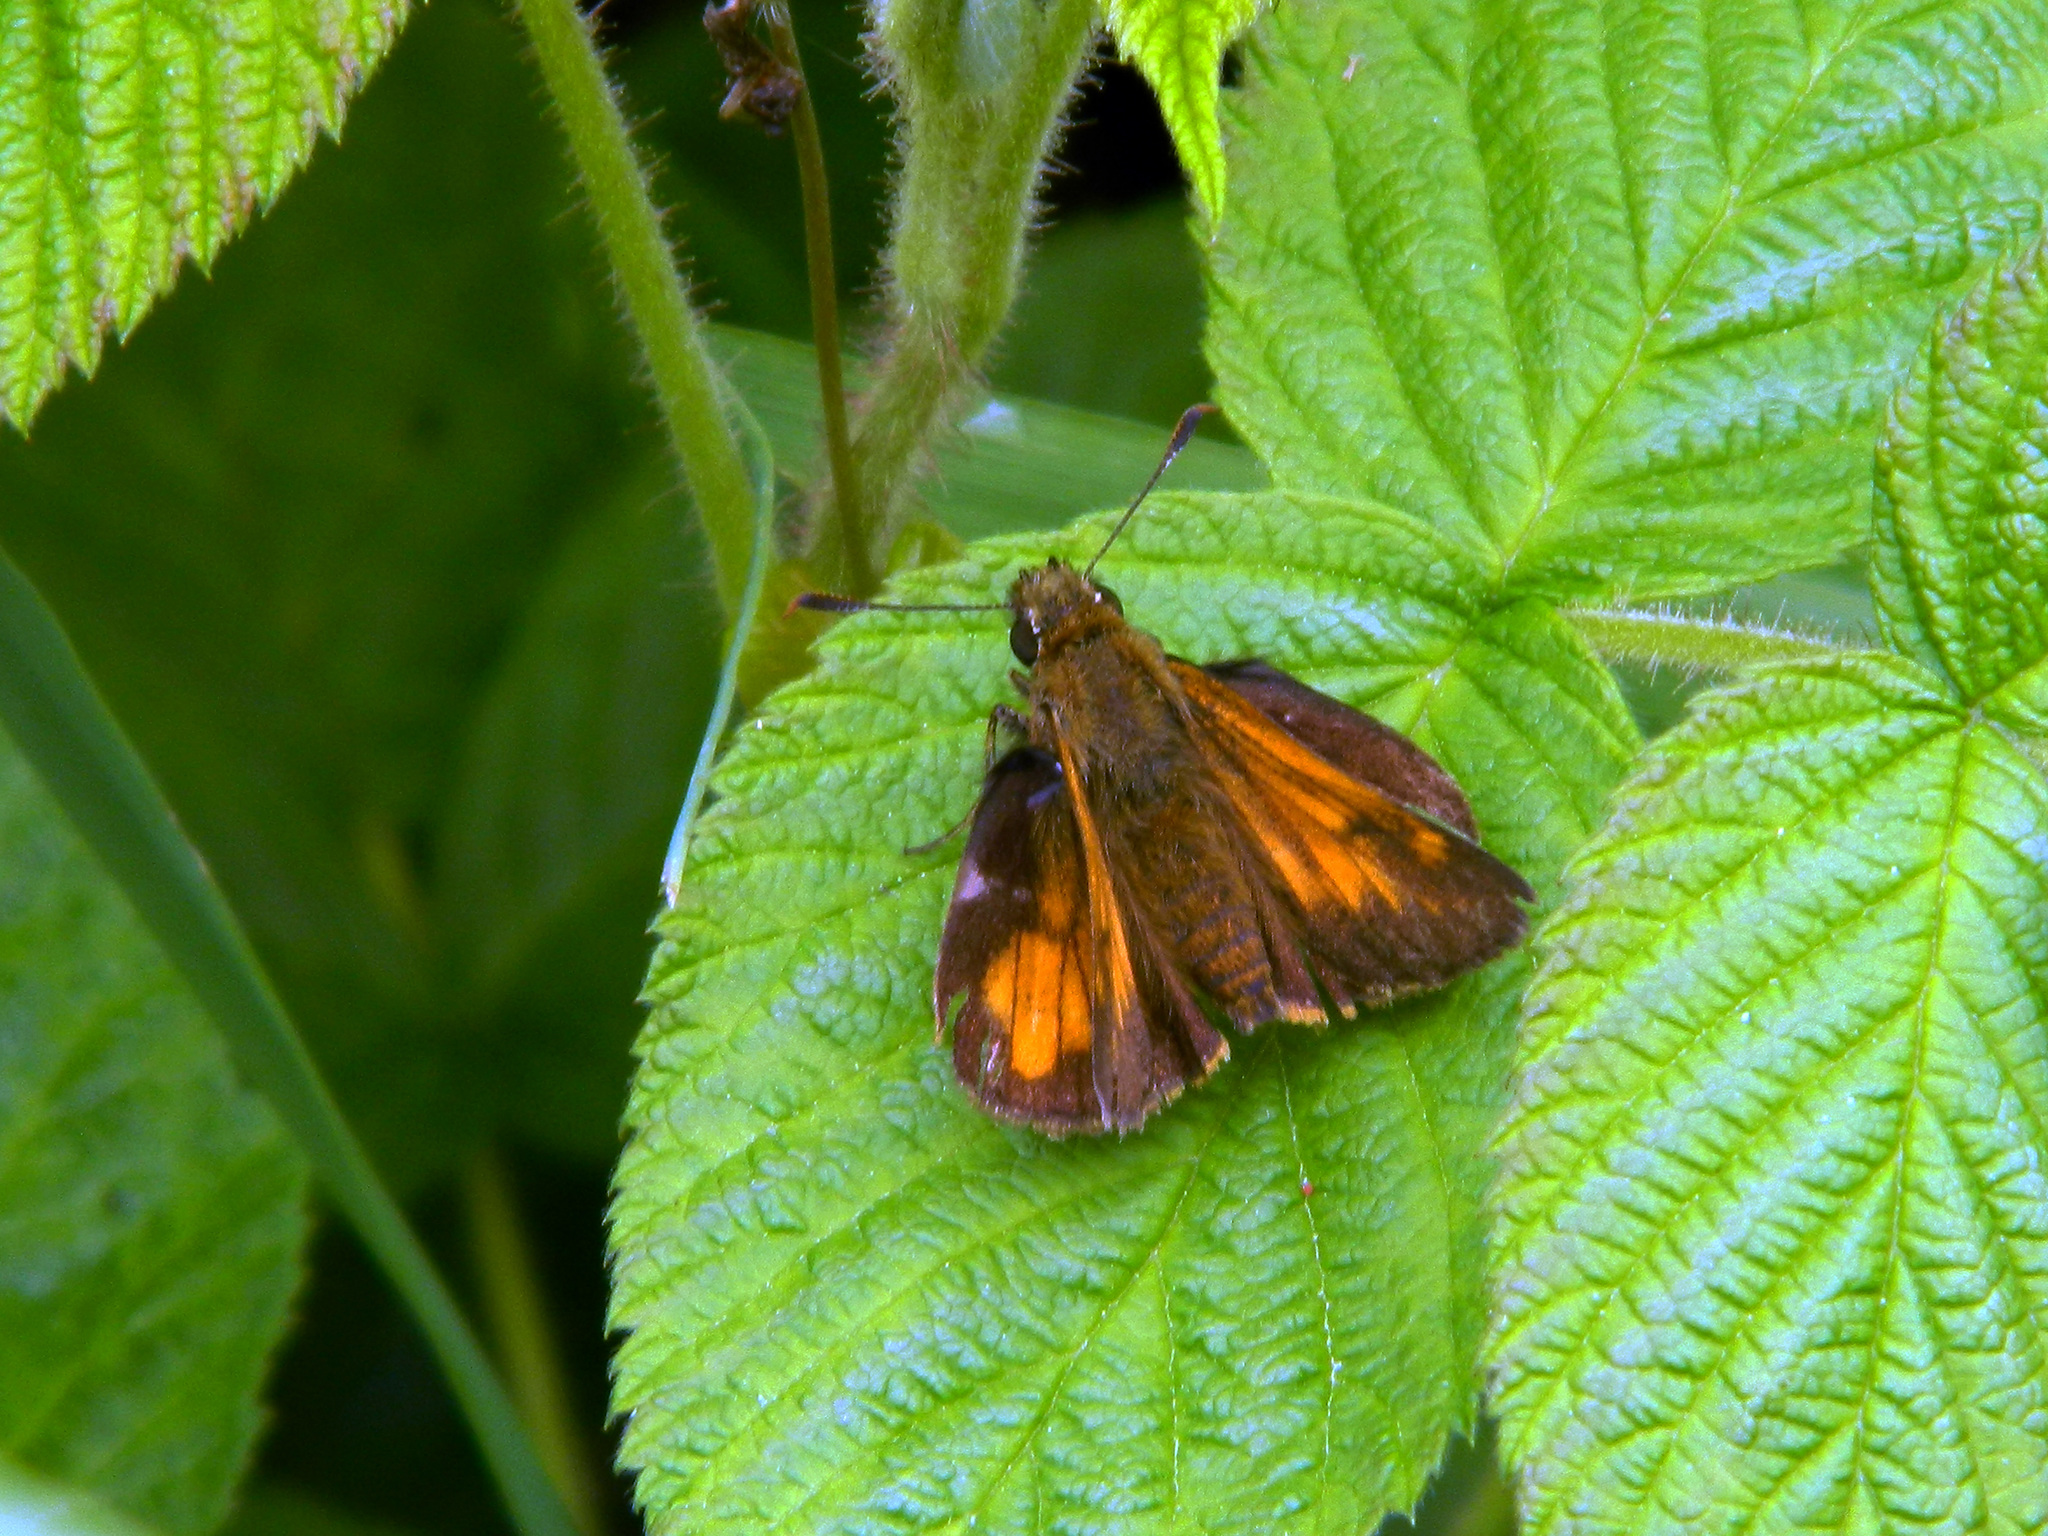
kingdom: Animalia
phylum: Arthropoda
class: Insecta
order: Lepidoptera
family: Hesperiidae
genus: Lon
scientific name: Lon hobomok
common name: Hobomok skipper
